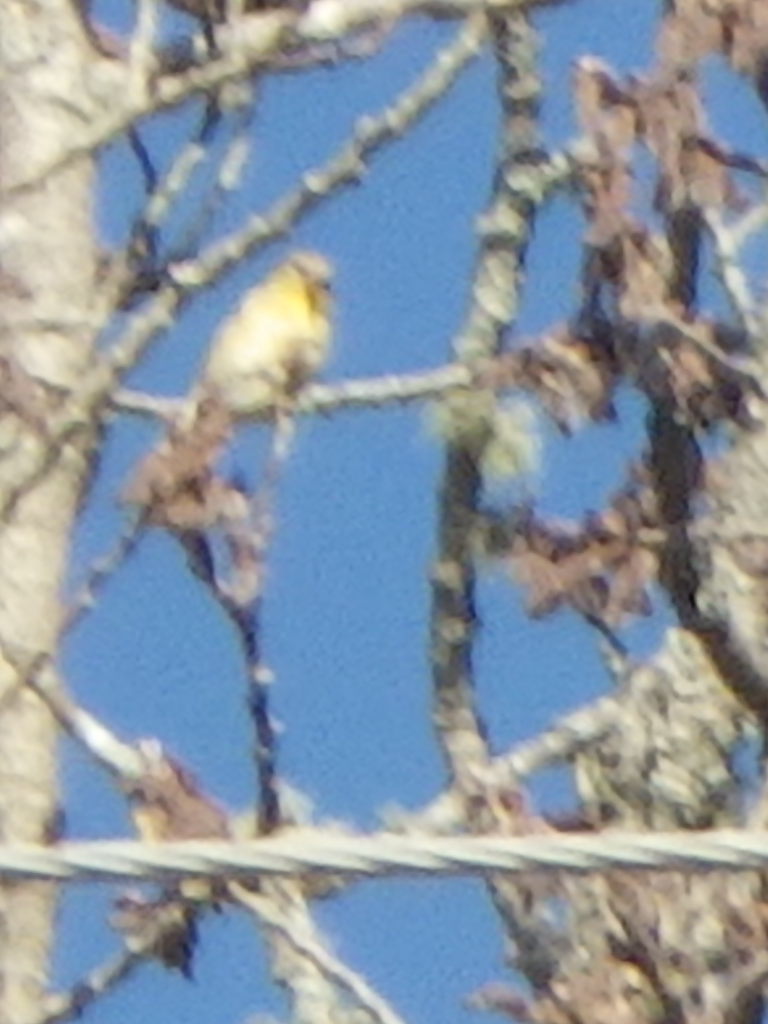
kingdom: Animalia
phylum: Chordata
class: Aves
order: Passeriformes
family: Fringillidae
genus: Spinus
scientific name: Spinus tristis
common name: American goldfinch
